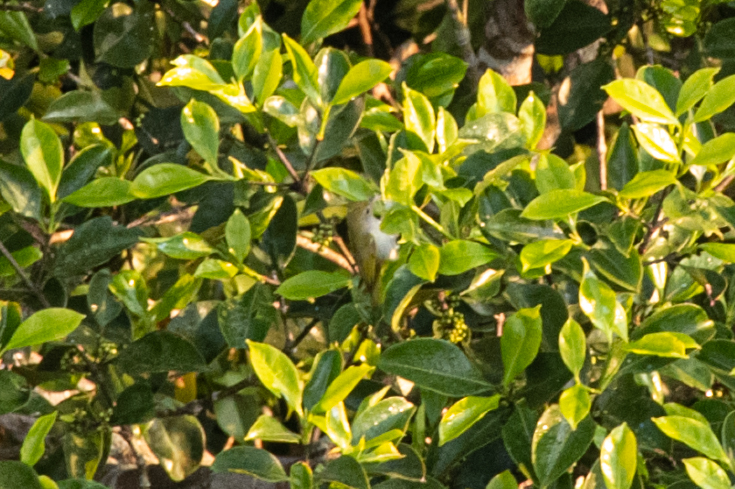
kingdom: Animalia
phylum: Chordata
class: Aves
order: Passeriformes
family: Vireonidae
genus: Erpornis
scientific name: Erpornis zantholeuca
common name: White-bellied erpornis
